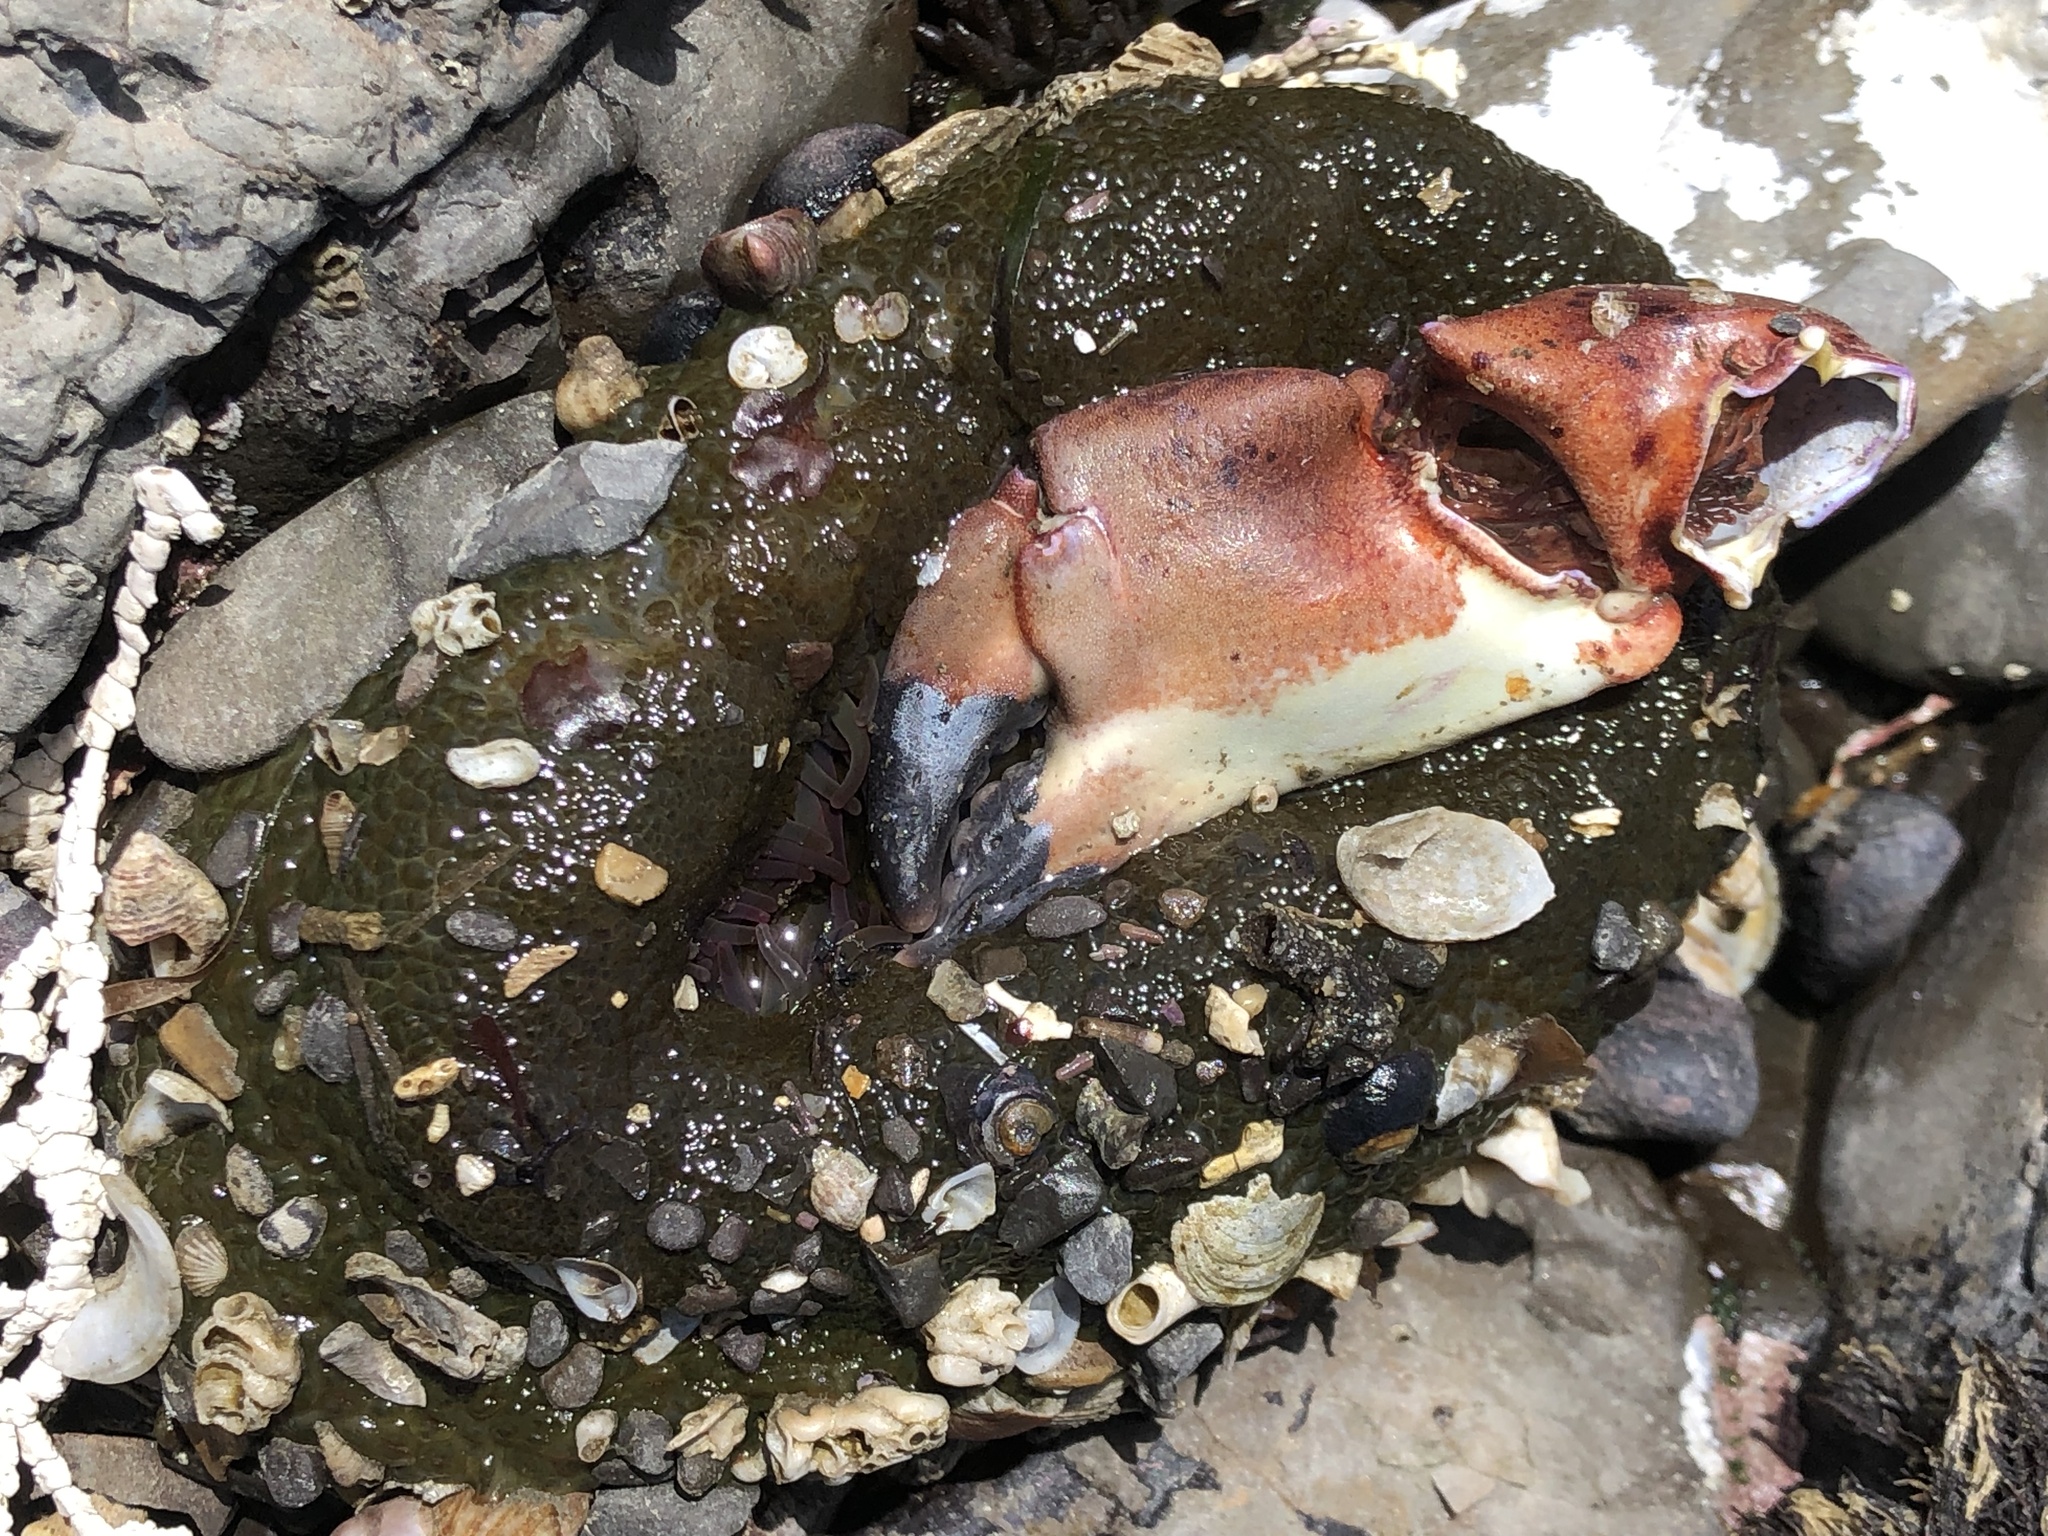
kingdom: Animalia
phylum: Arthropoda
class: Malacostraca
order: Decapoda
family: Cancridae
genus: Romaleon
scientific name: Romaleon antennarium
